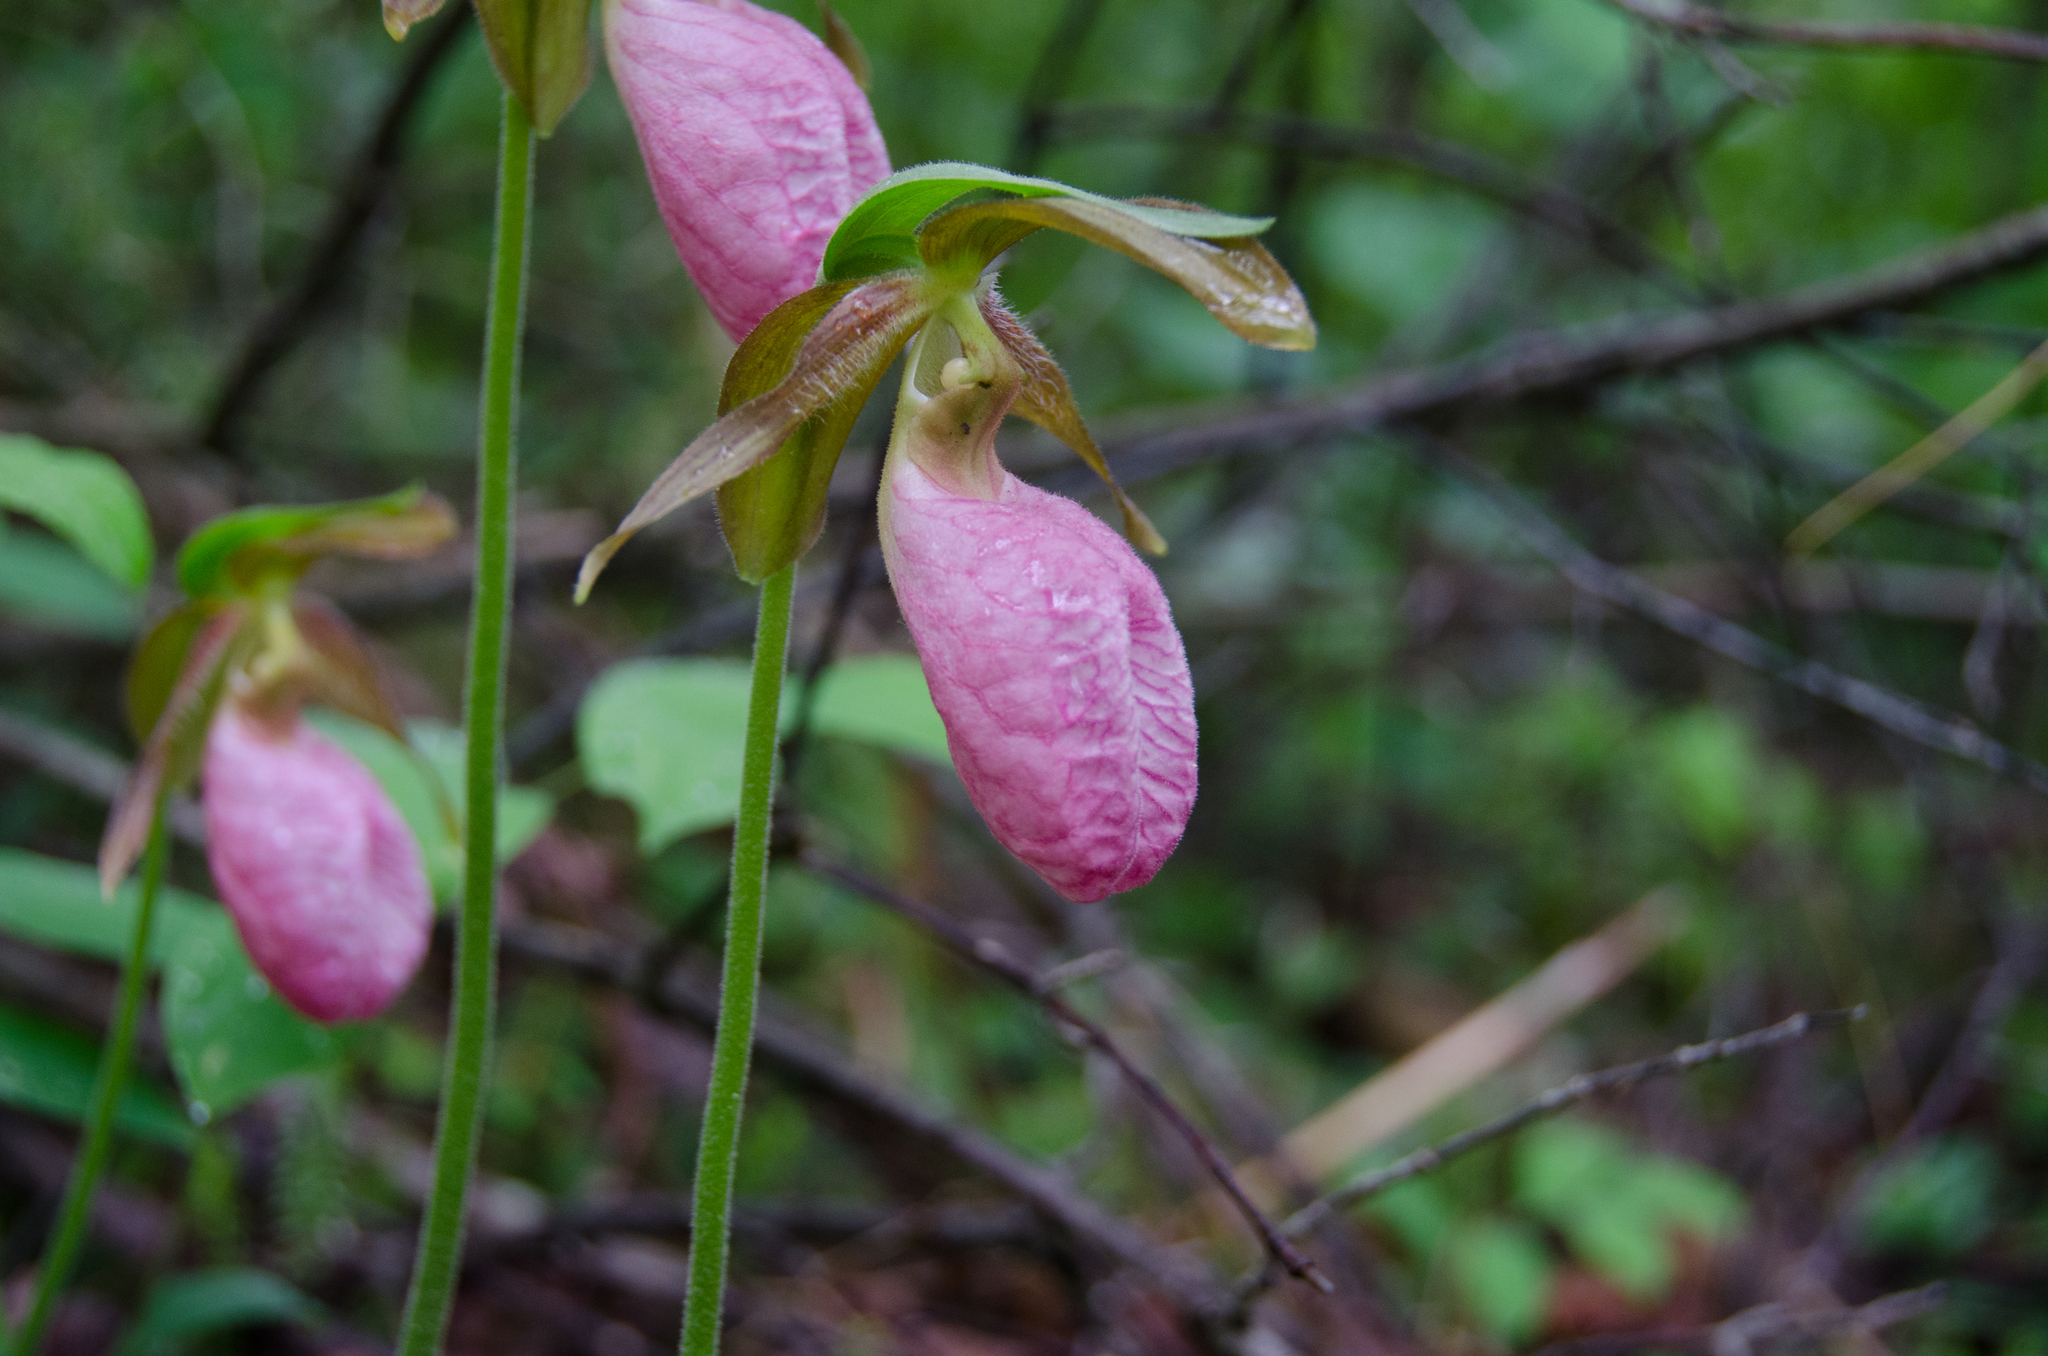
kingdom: Plantae
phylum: Tracheophyta
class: Liliopsida
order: Asparagales
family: Orchidaceae
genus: Cypripedium
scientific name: Cypripedium acaule
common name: Pink lady's-slipper
